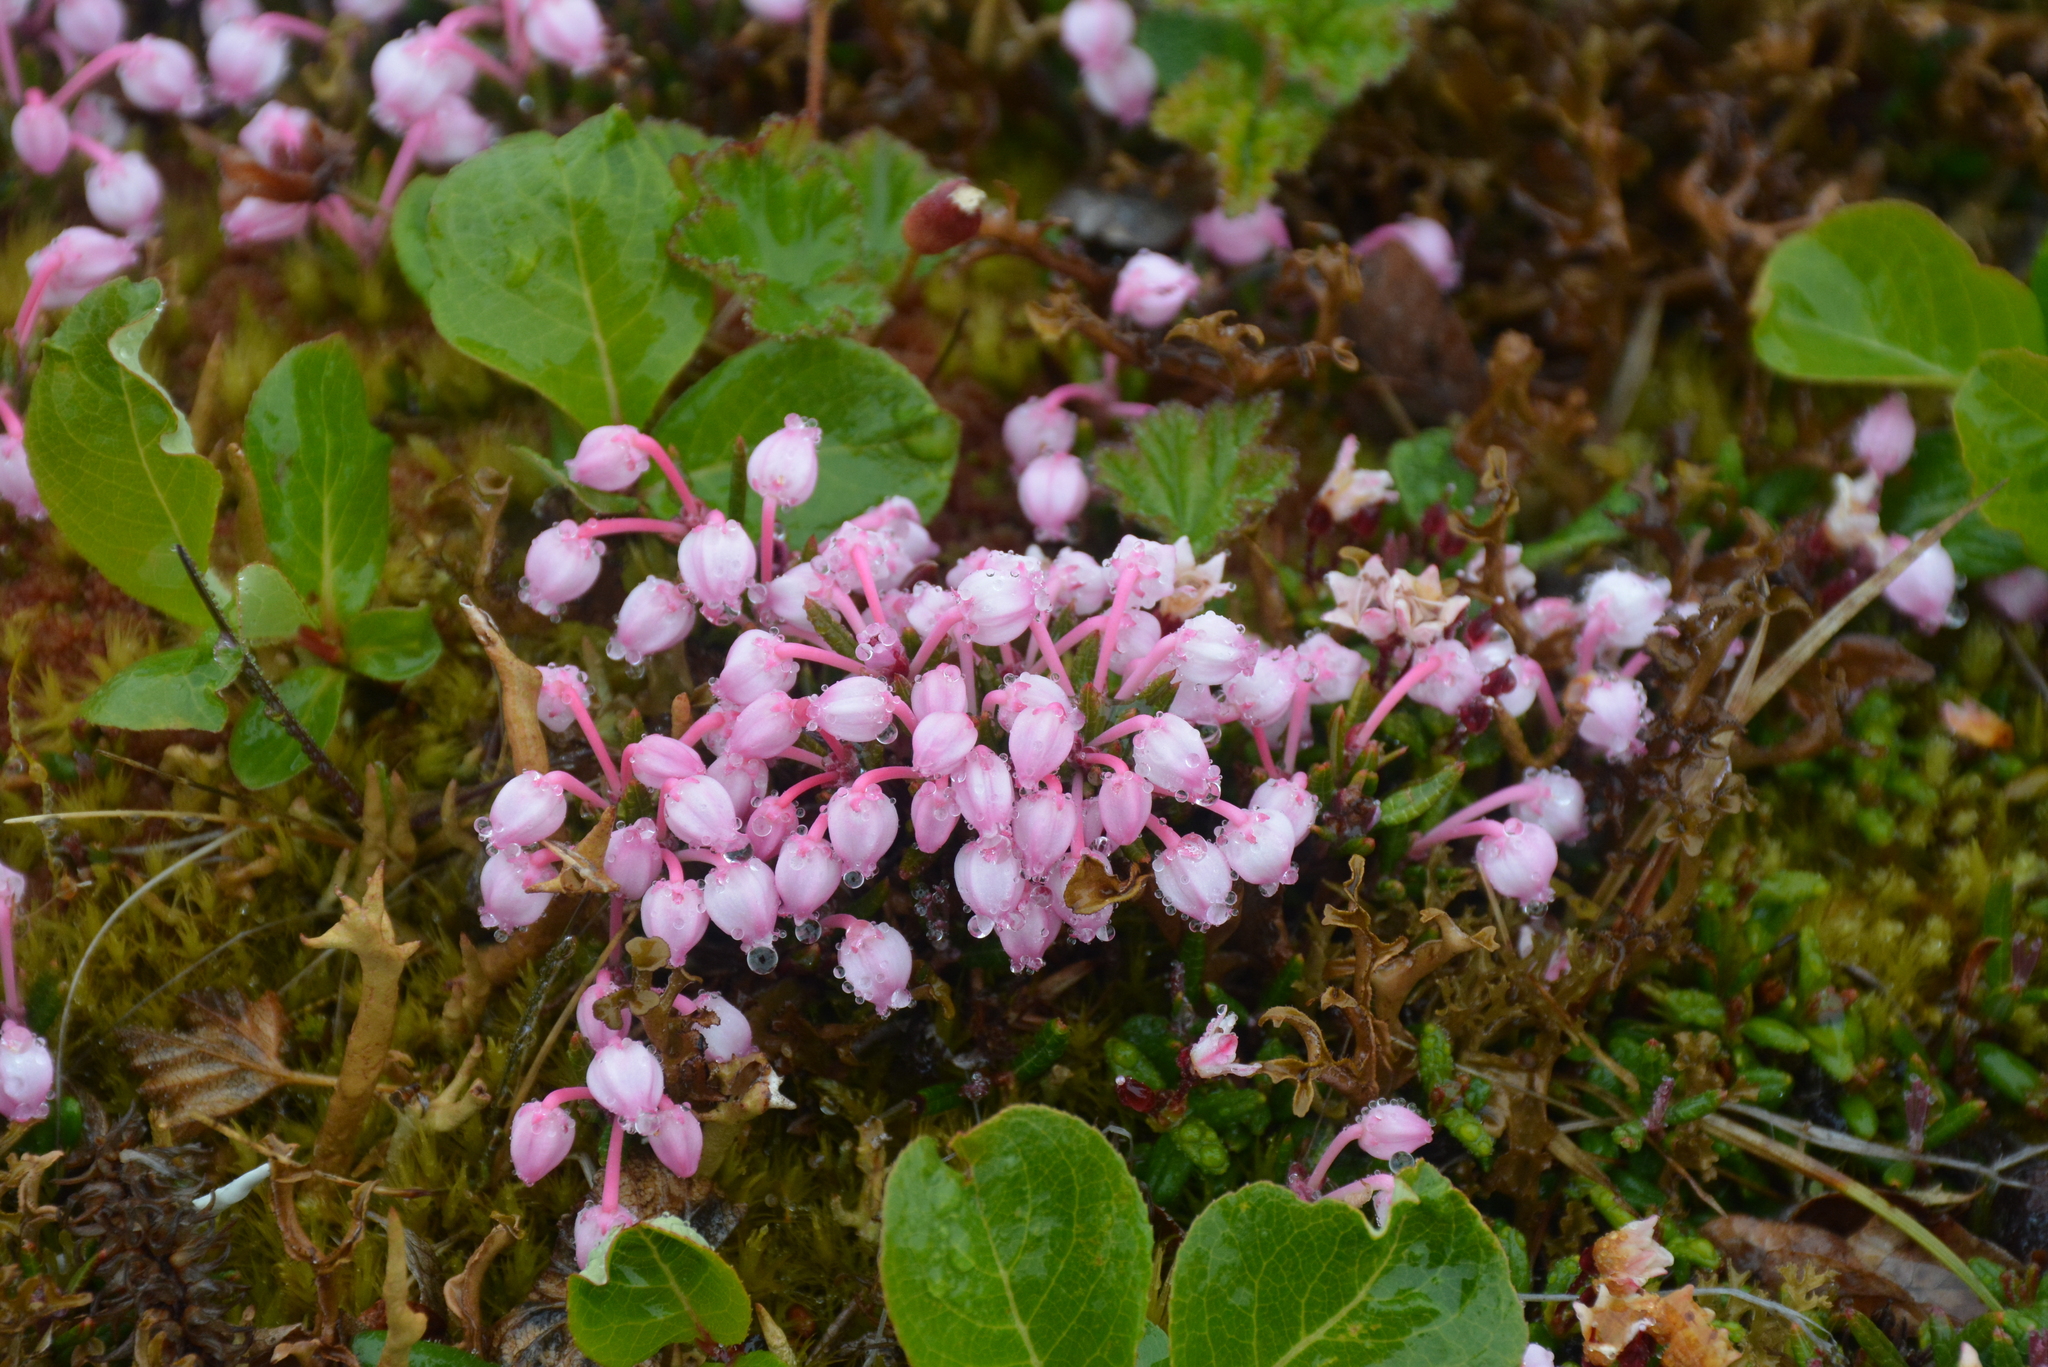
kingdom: Plantae
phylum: Tracheophyta
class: Magnoliopsida
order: Ericales
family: Ericaceae
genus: Andromeda
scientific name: Andromeda polifolia
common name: Bog-rosemary
